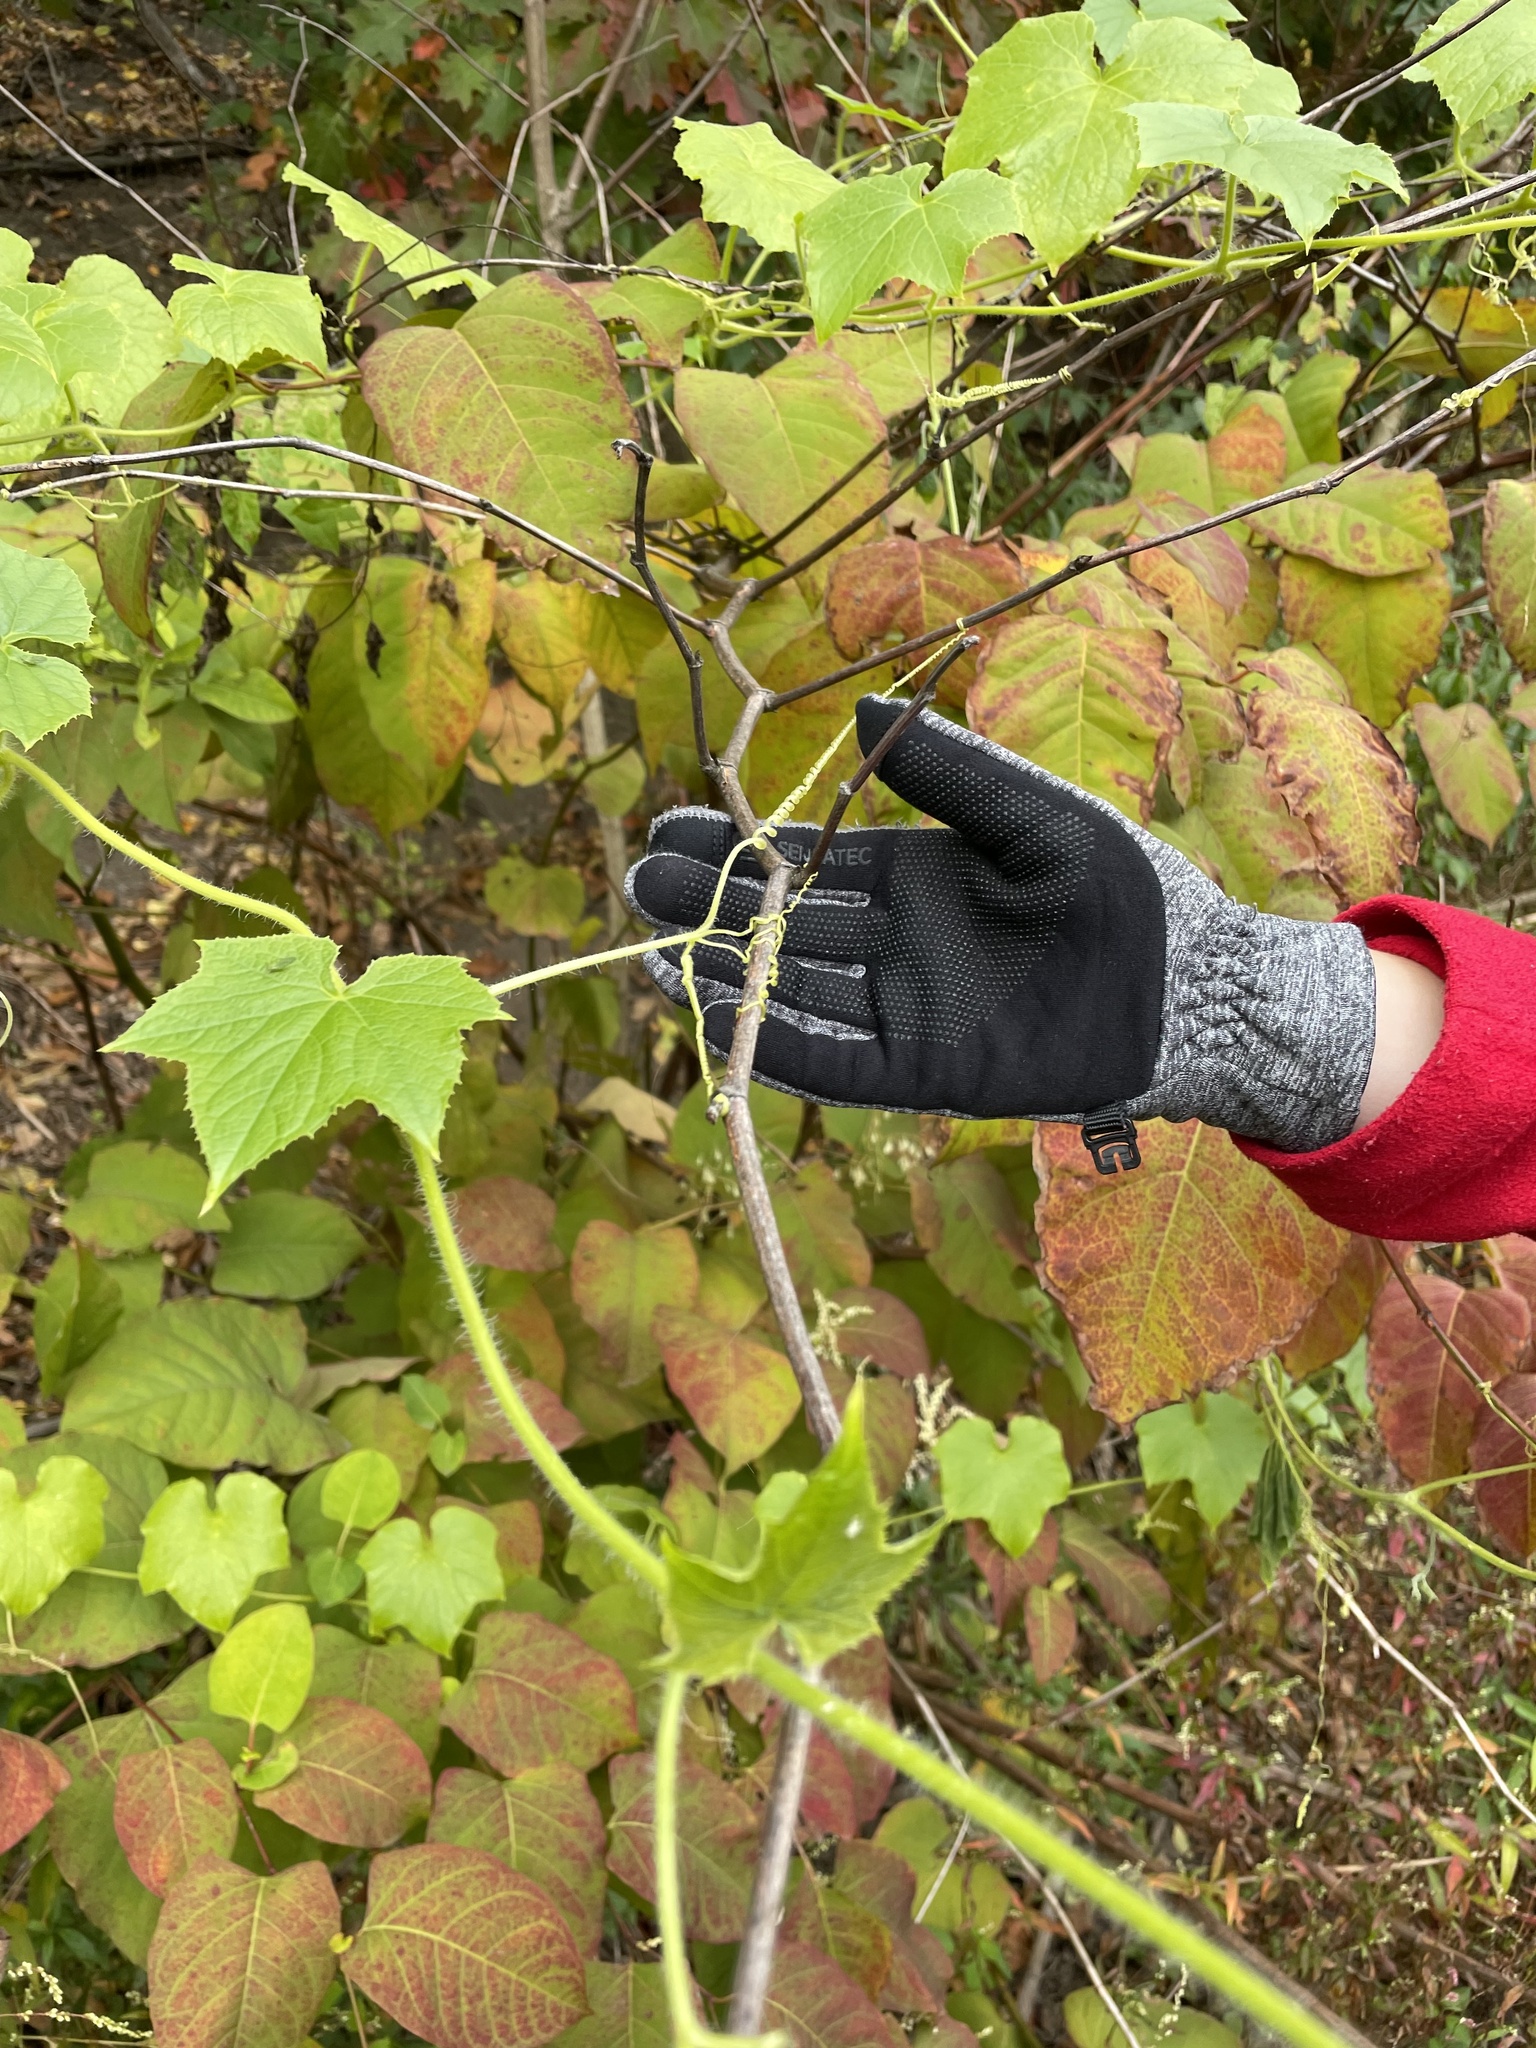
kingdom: Plantae
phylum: Tracheophyta
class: Magnoliopsida
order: Cucurbitales
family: Cucurbitaceae
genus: Sicyos
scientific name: Sicyos angulatus
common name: Angled burr cucumber
